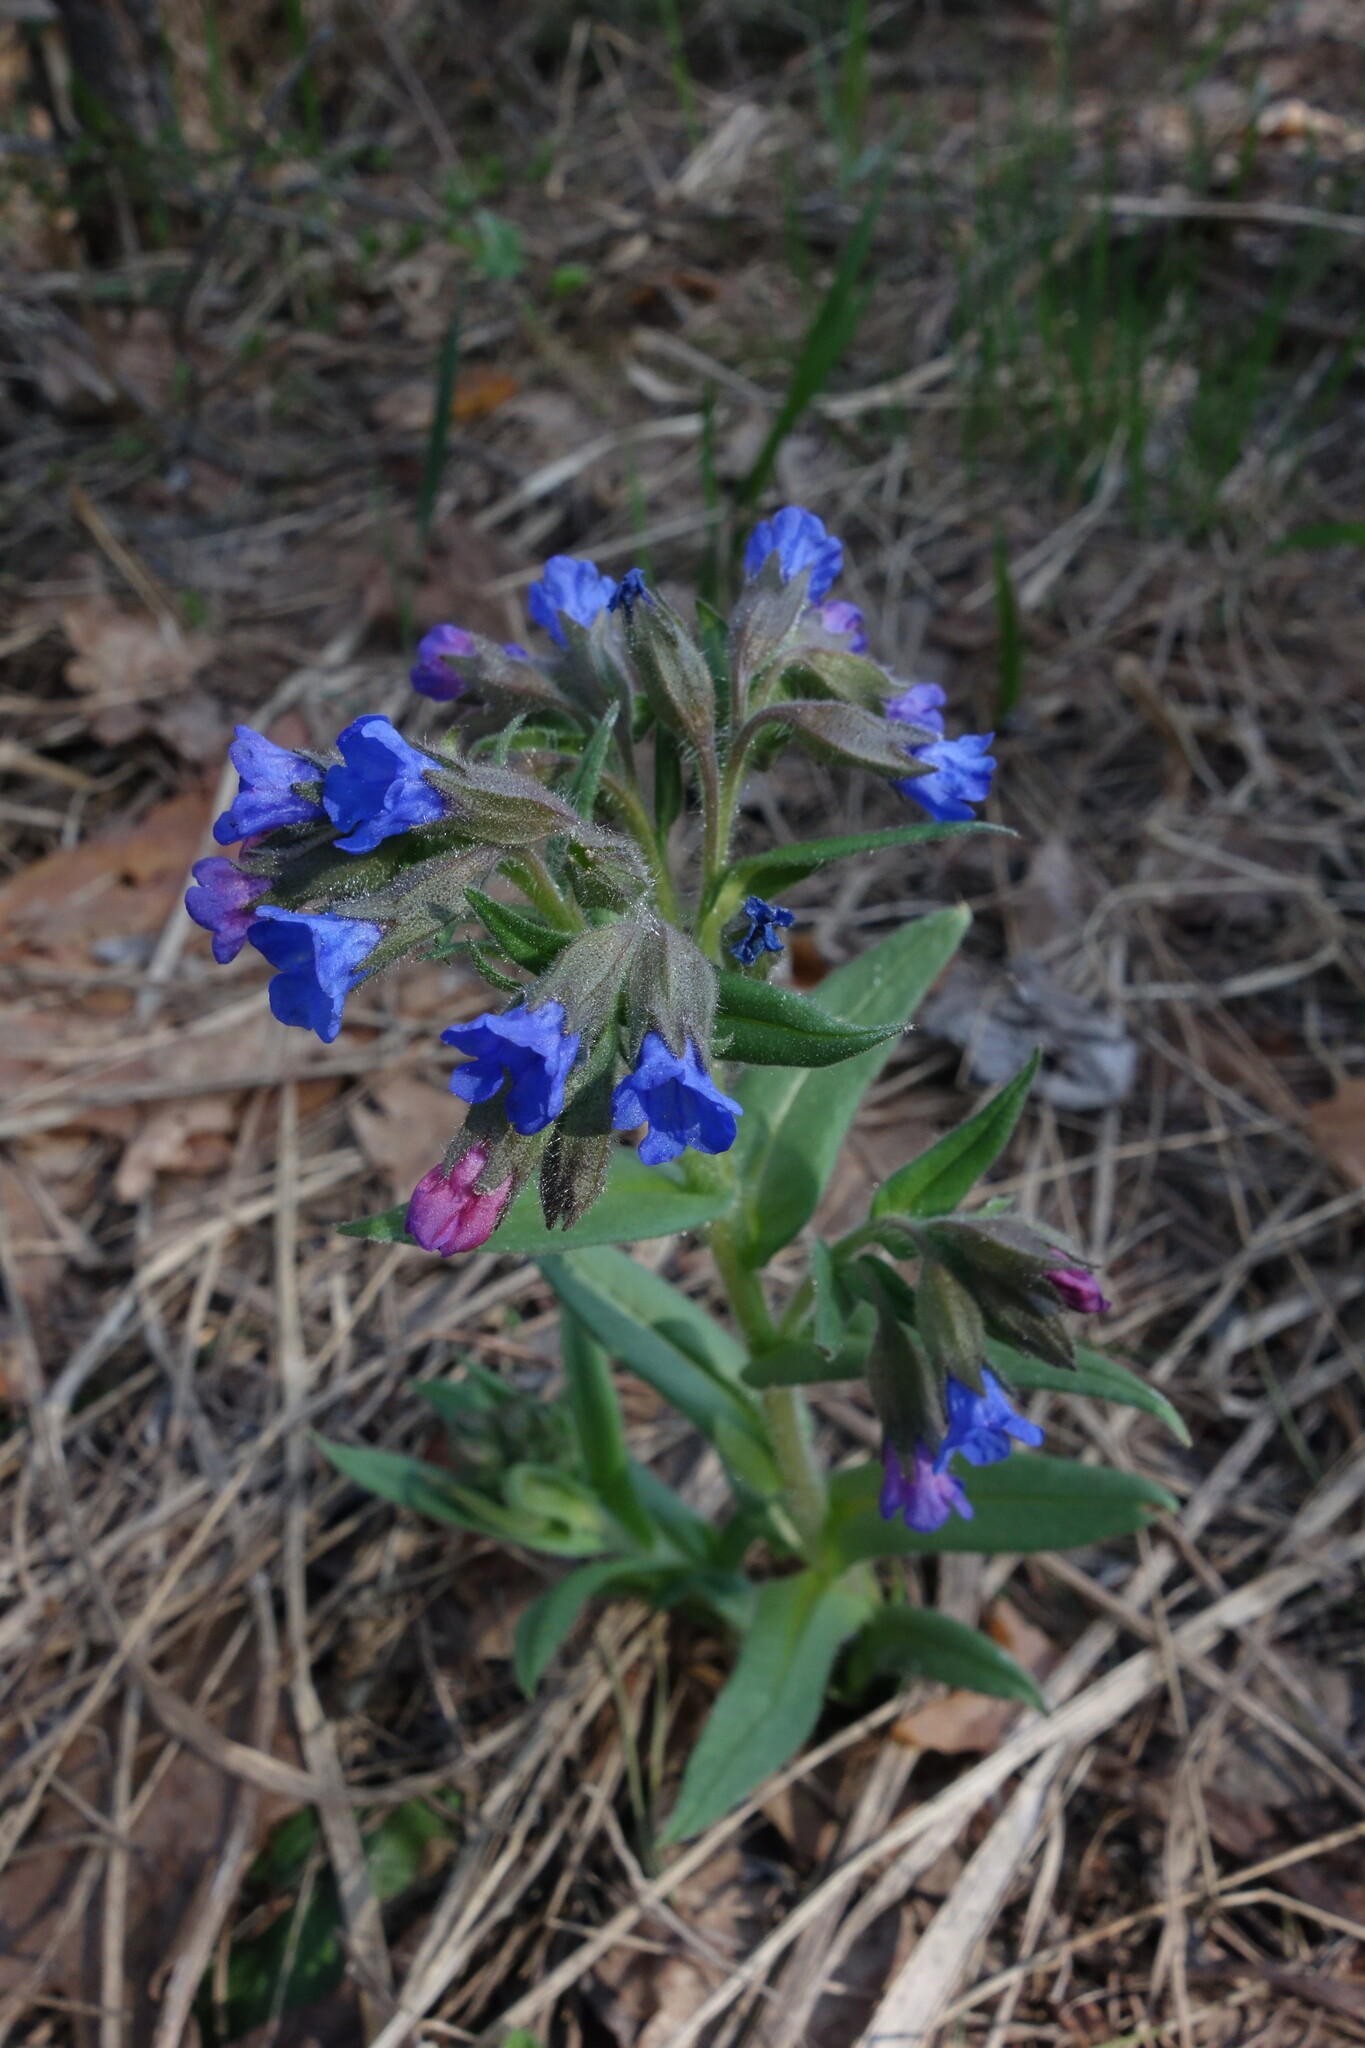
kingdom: Plantae
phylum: Tracheophyta
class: Magnoliopsida
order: Boraginales
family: Boraginaceae
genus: Pulmonaria
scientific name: Pulmonaria angustifolia
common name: Blue cowslip
